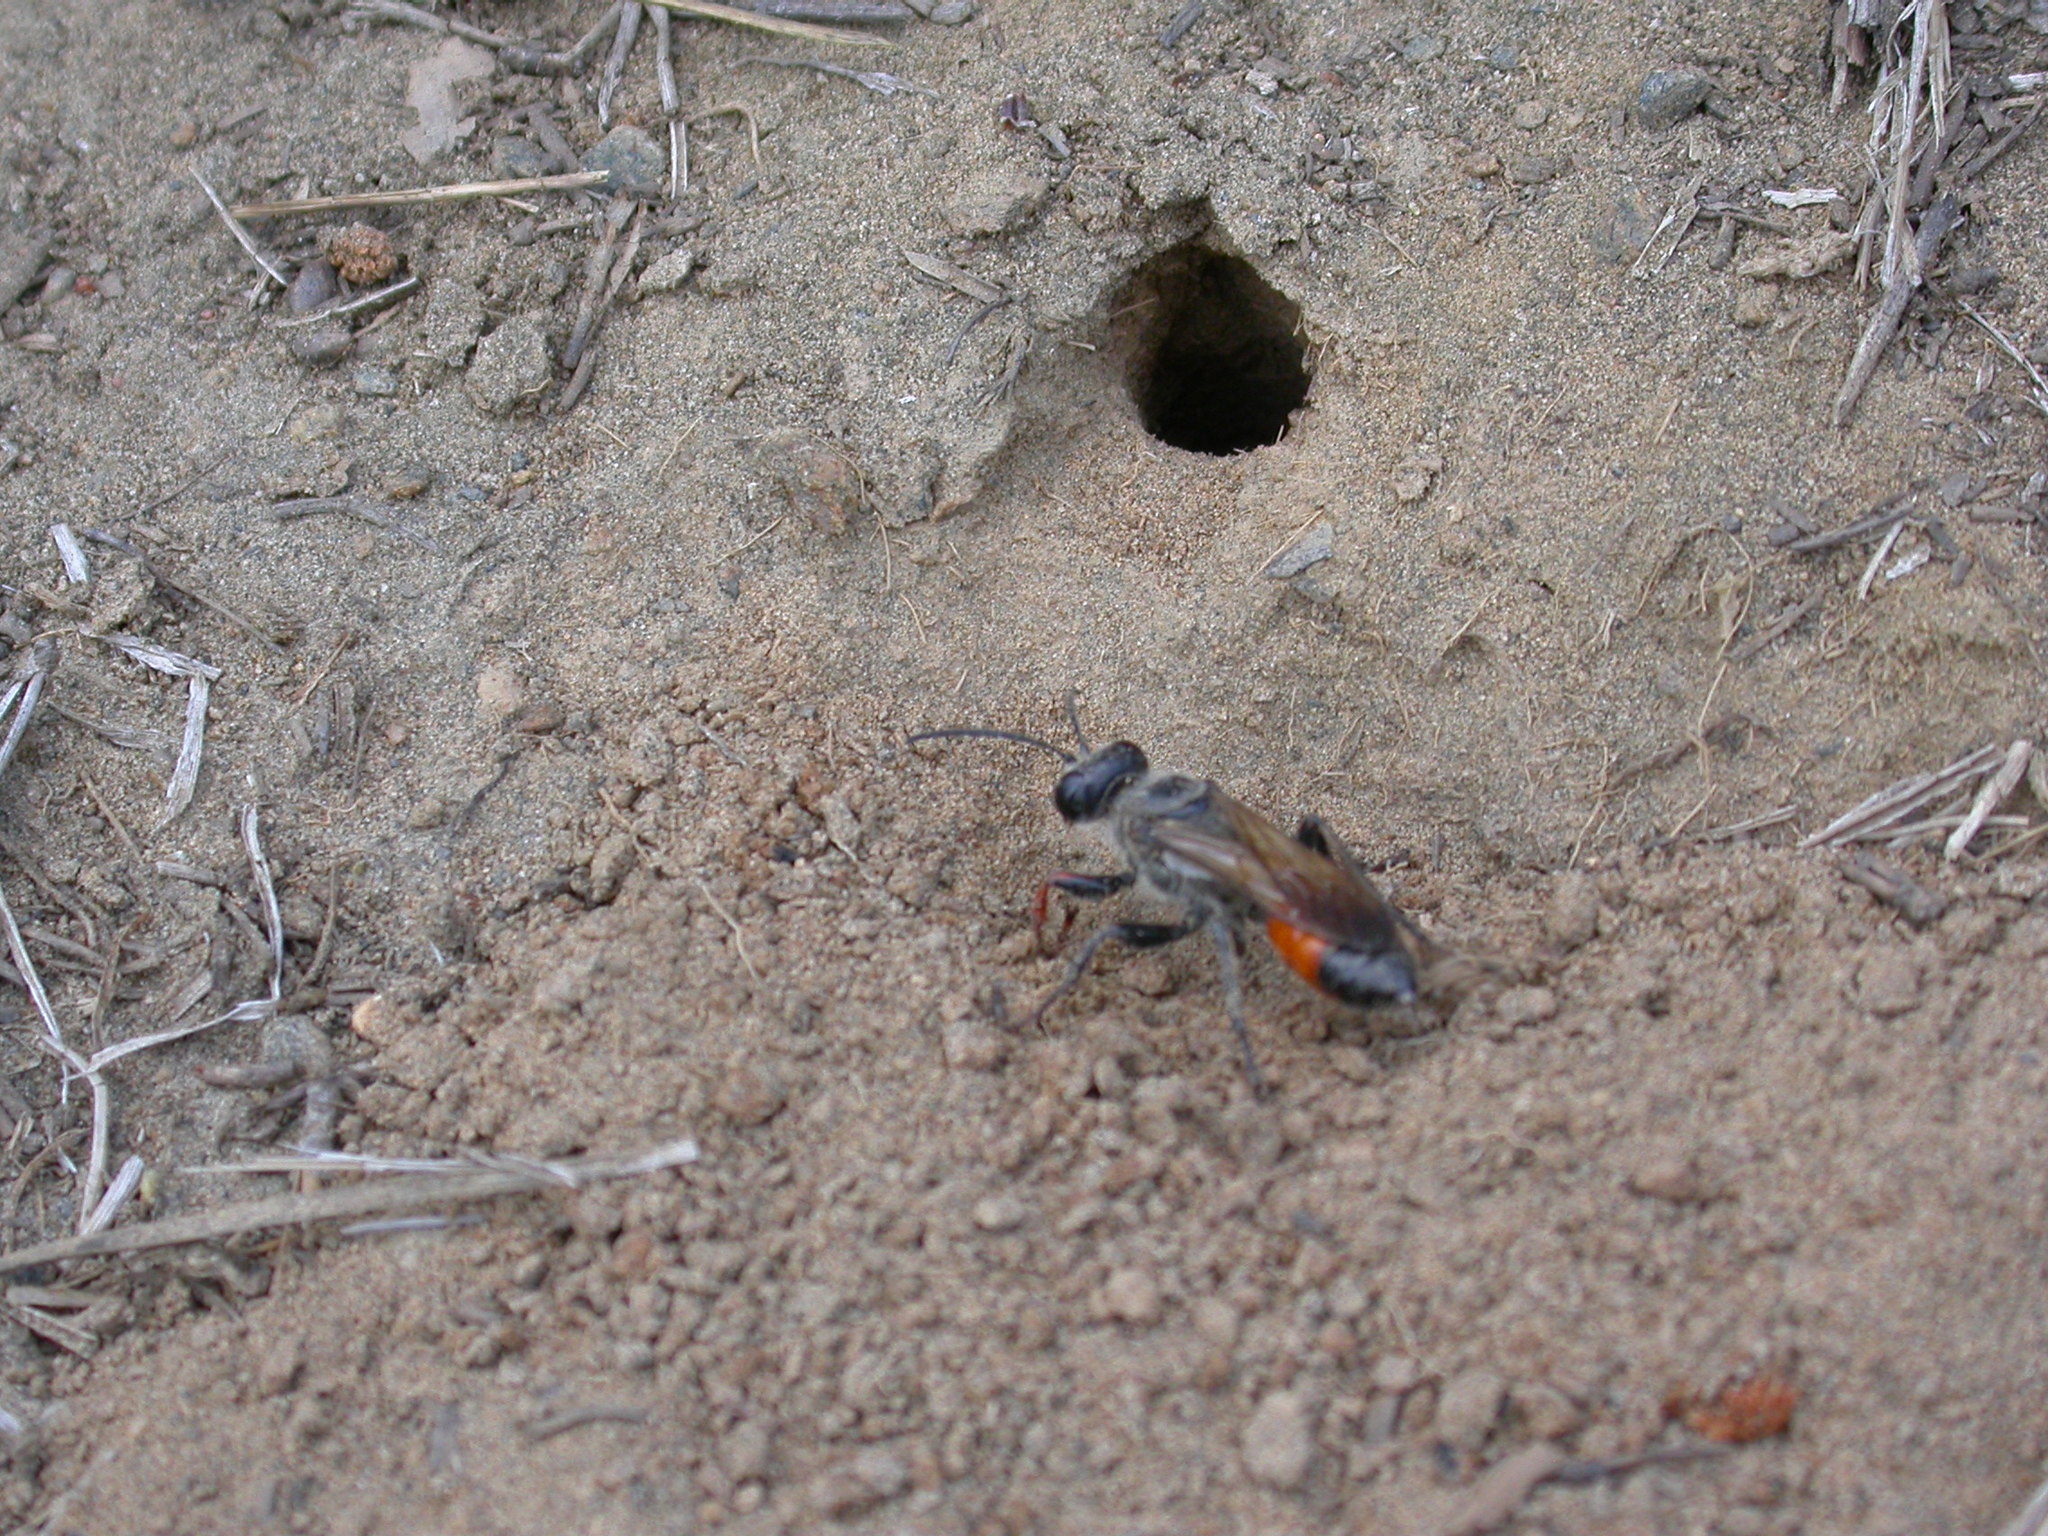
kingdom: Animalia
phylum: Arthropoda
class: Insecta
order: Hymenoptera
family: Sphecidae
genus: Sphex
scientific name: Sphex funerarius
